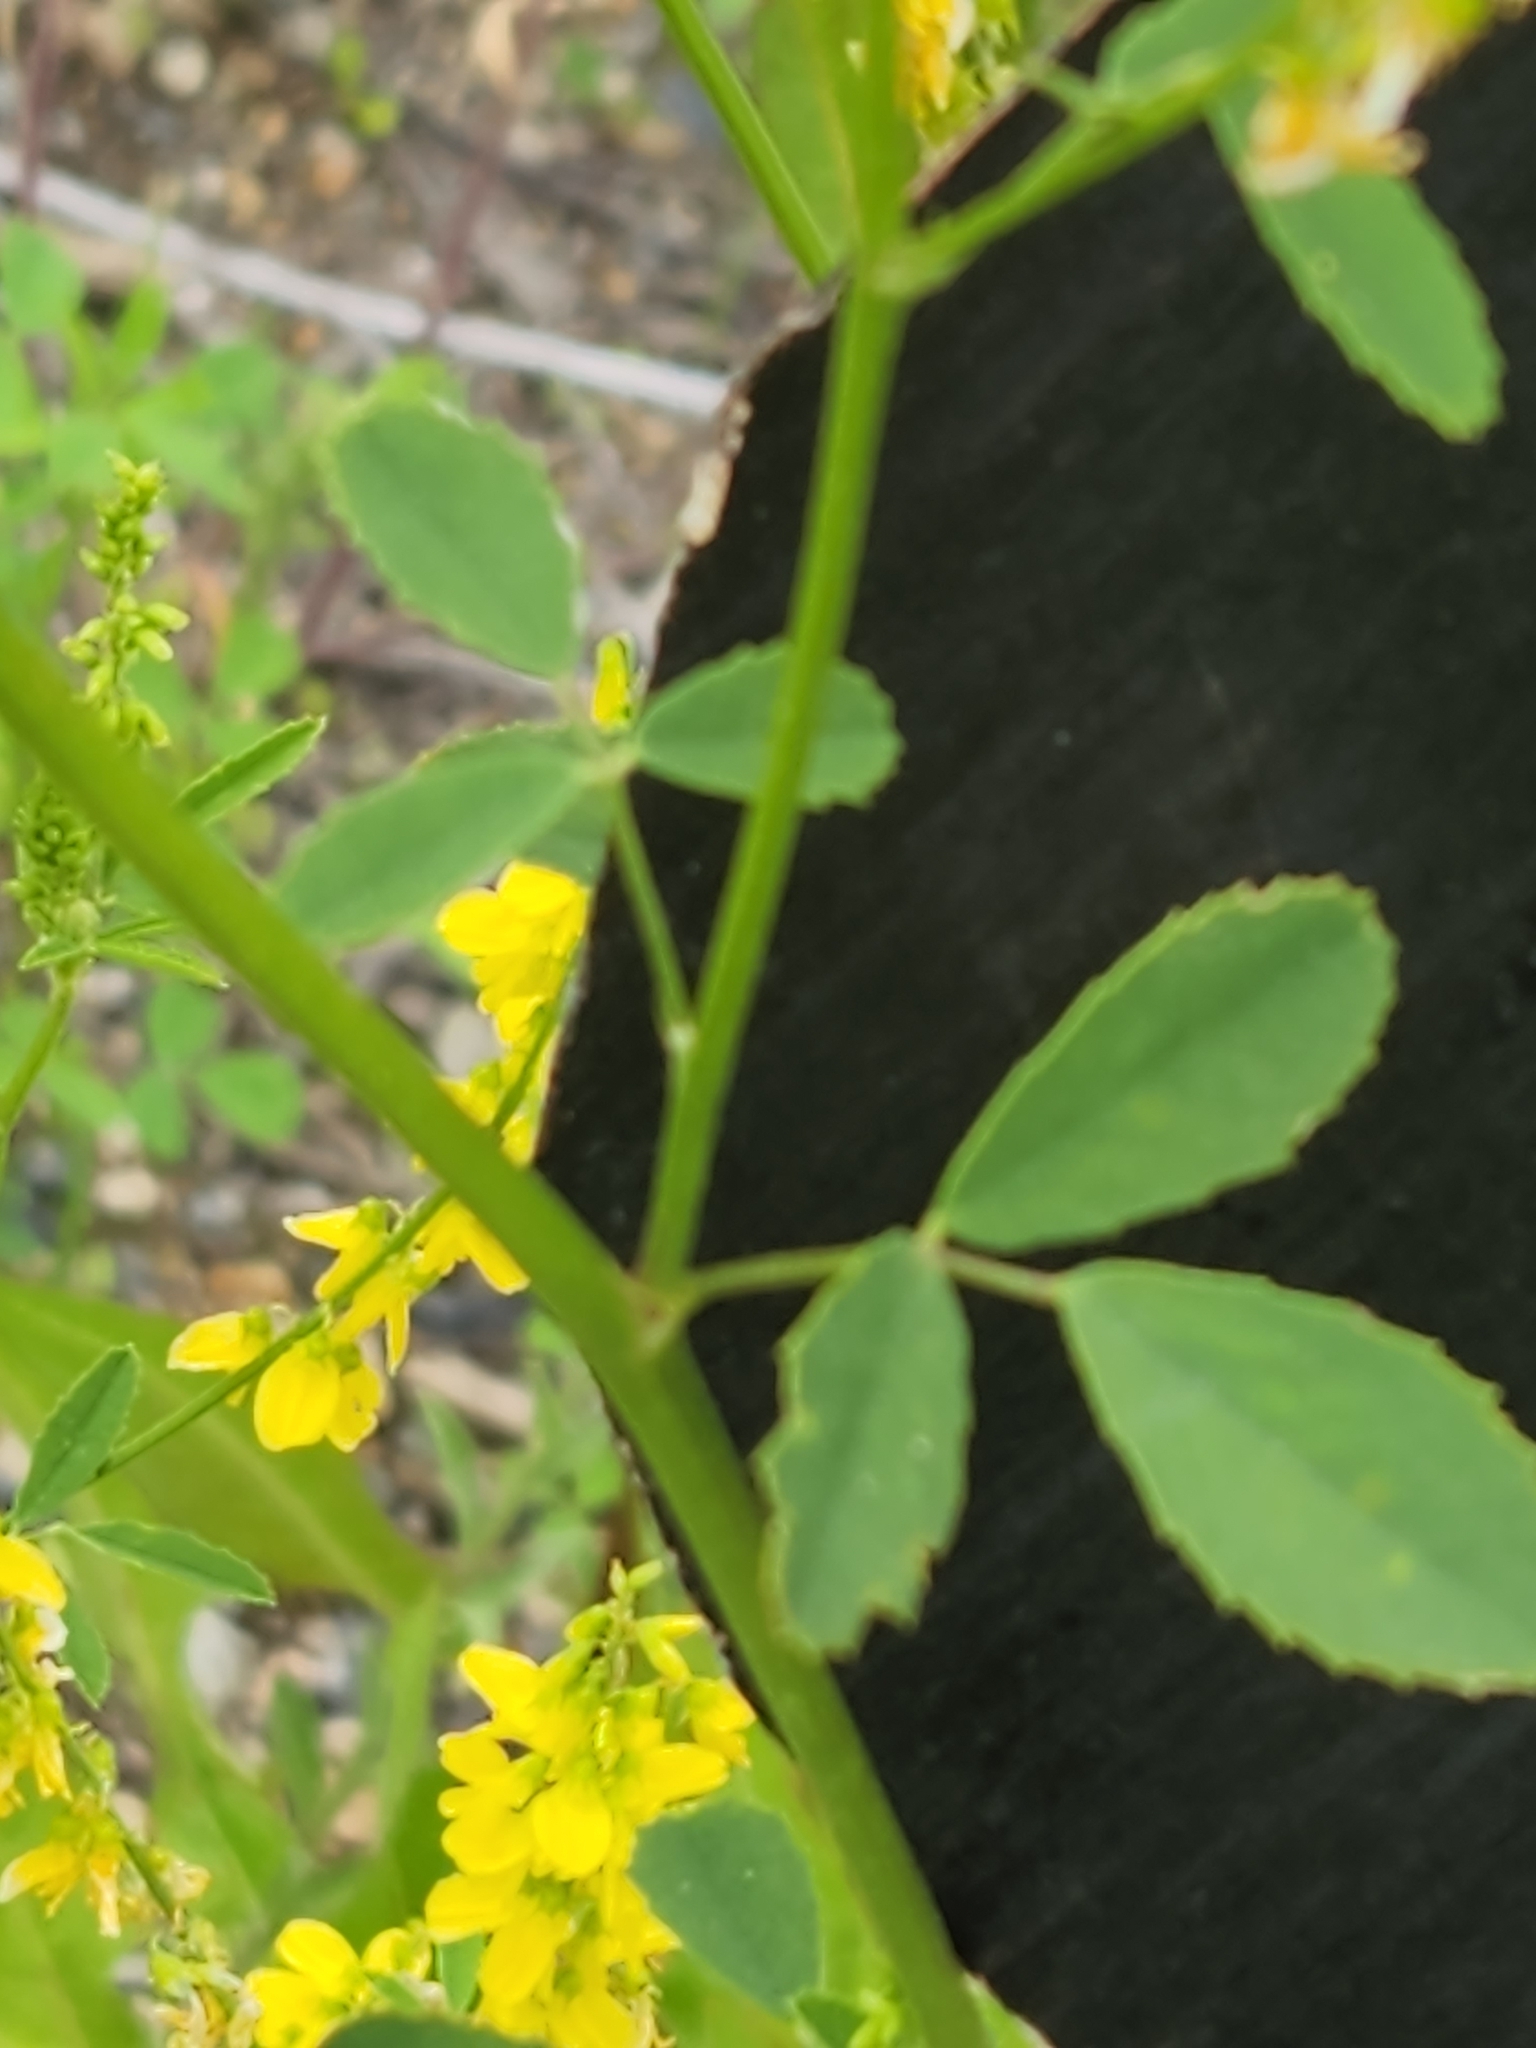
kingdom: Plantae
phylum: Tracheophyta
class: Magnoliopsida
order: Fabales
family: Fabaceae
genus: Melilotus
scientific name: Melilotus officinalis
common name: Sweetclover
